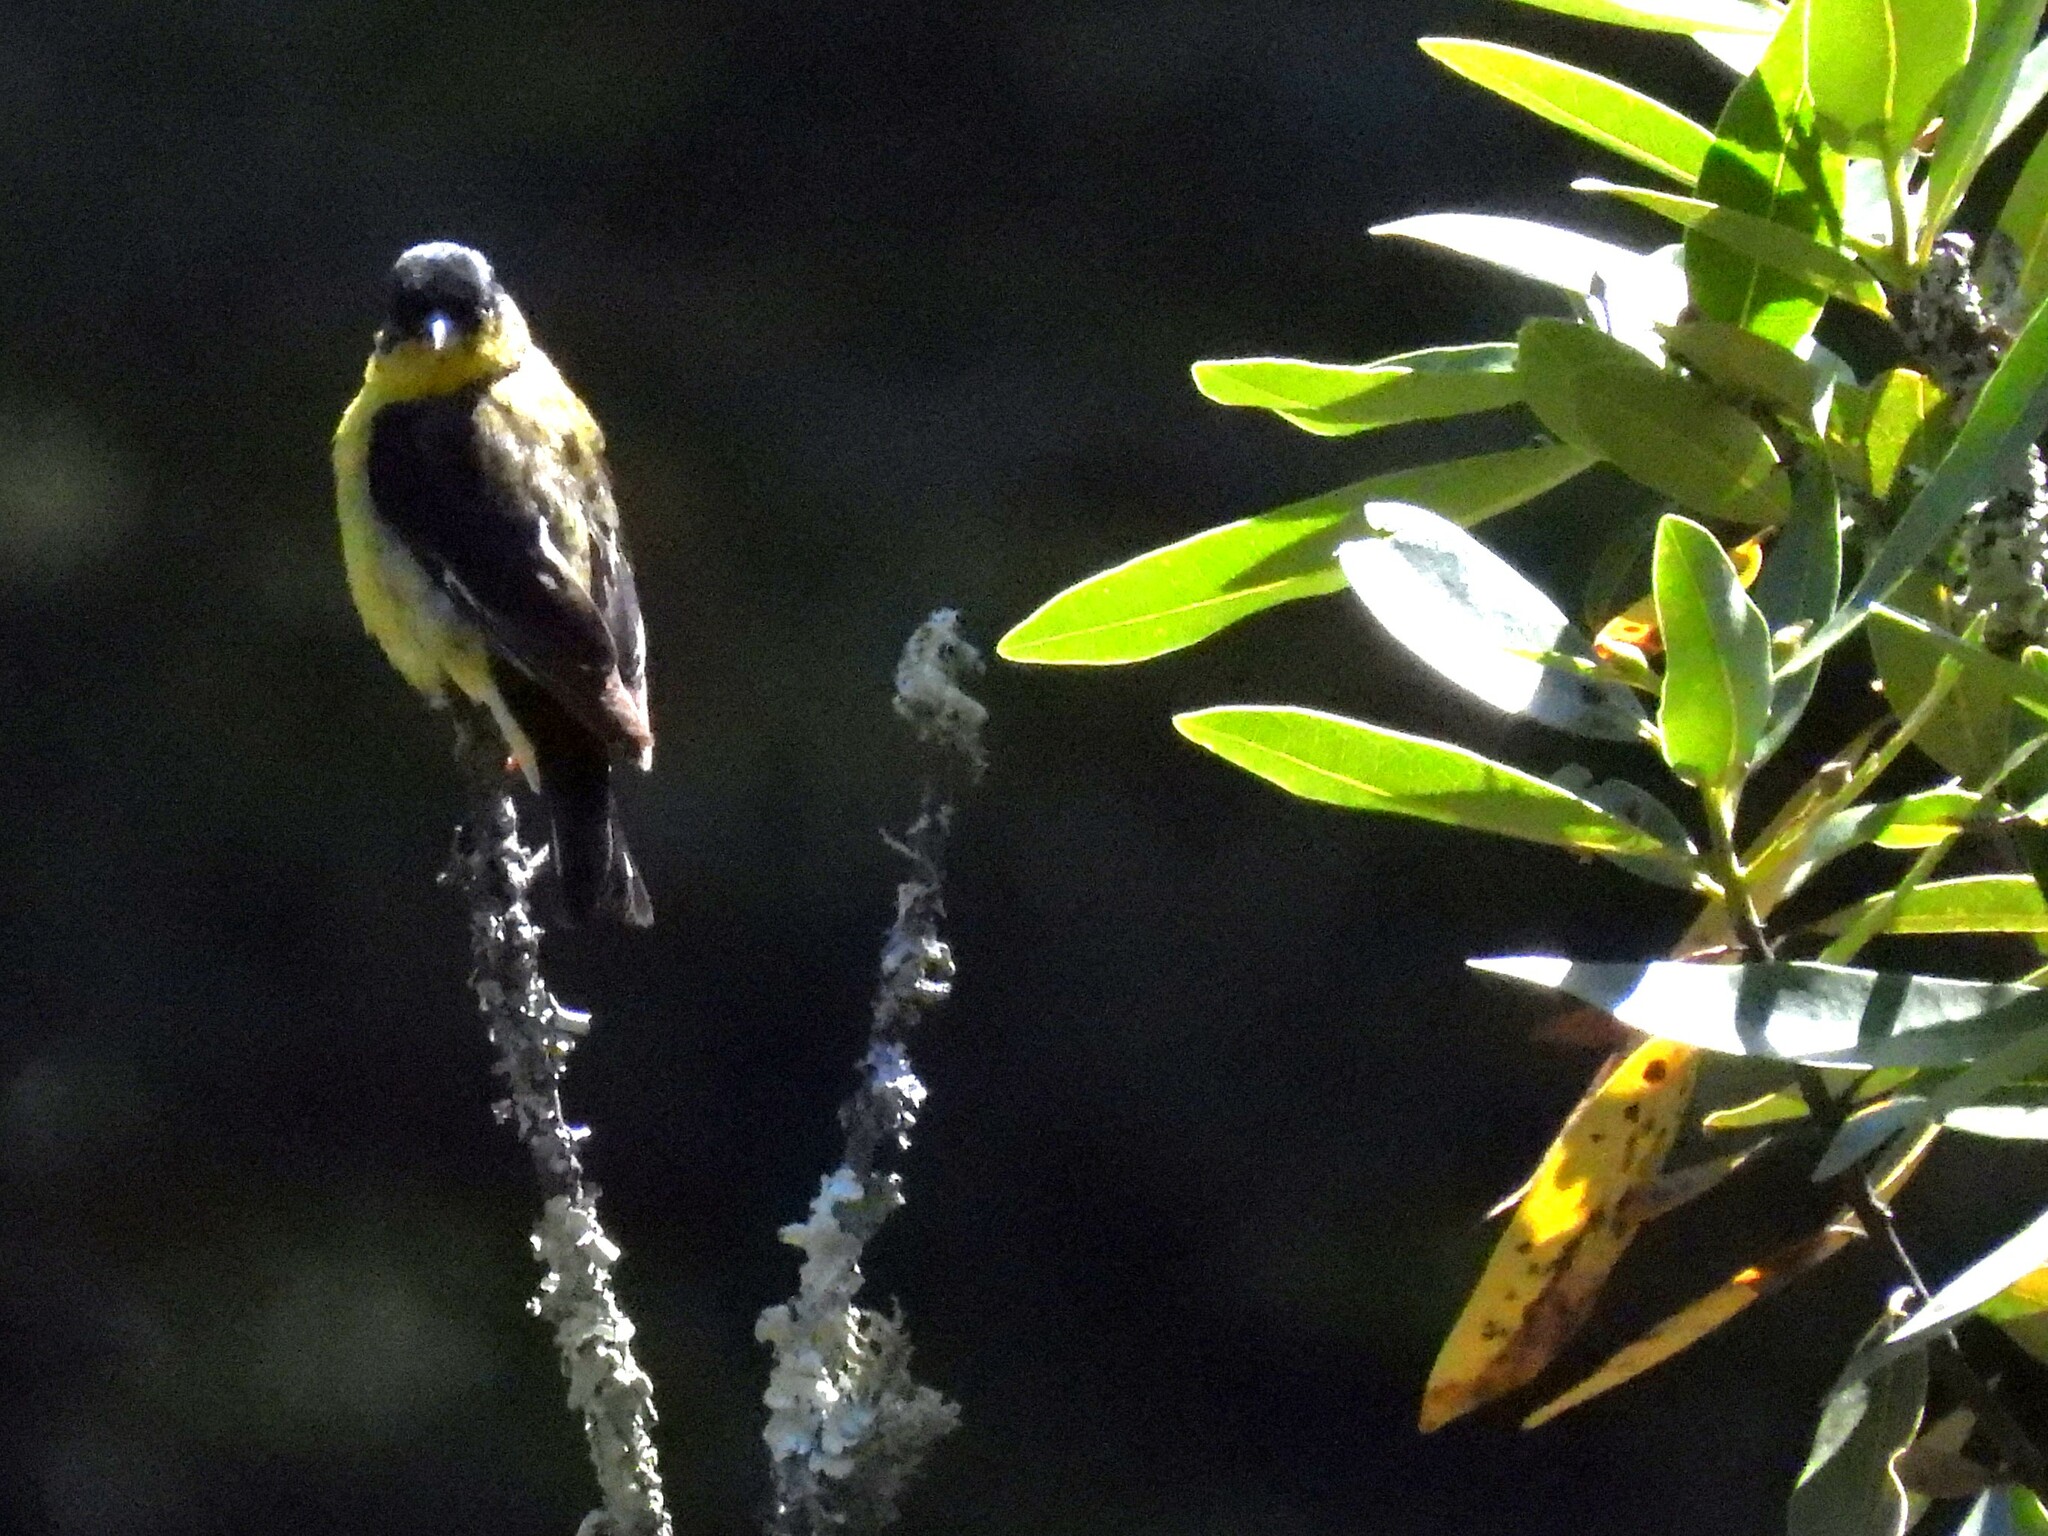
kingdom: Animalia
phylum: Chordata
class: Aves
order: Passeriformes
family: Fringillidae
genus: Spinus
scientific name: Spinus psaltria
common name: Lesser goldfinch
